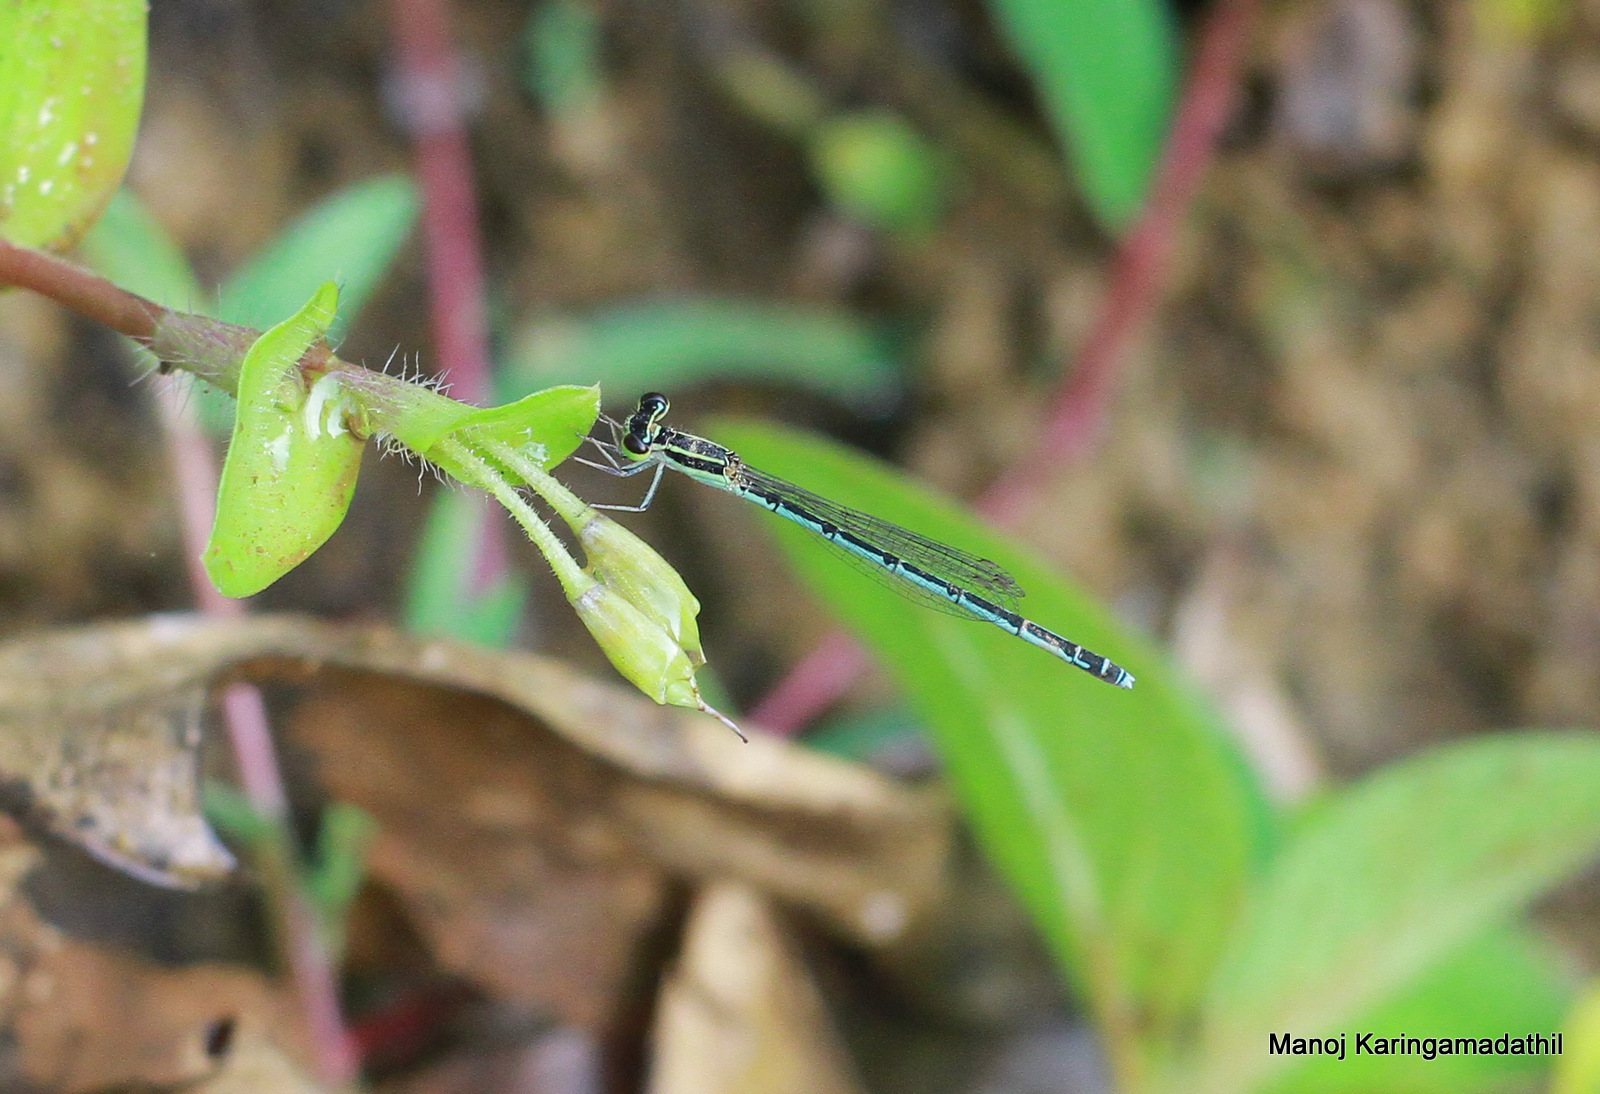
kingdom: Animalia
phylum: Arthropoda
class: Insecta
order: Odonata
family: Coenagrionidae
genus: Agriocnemis
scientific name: Agriocnemis pieris
